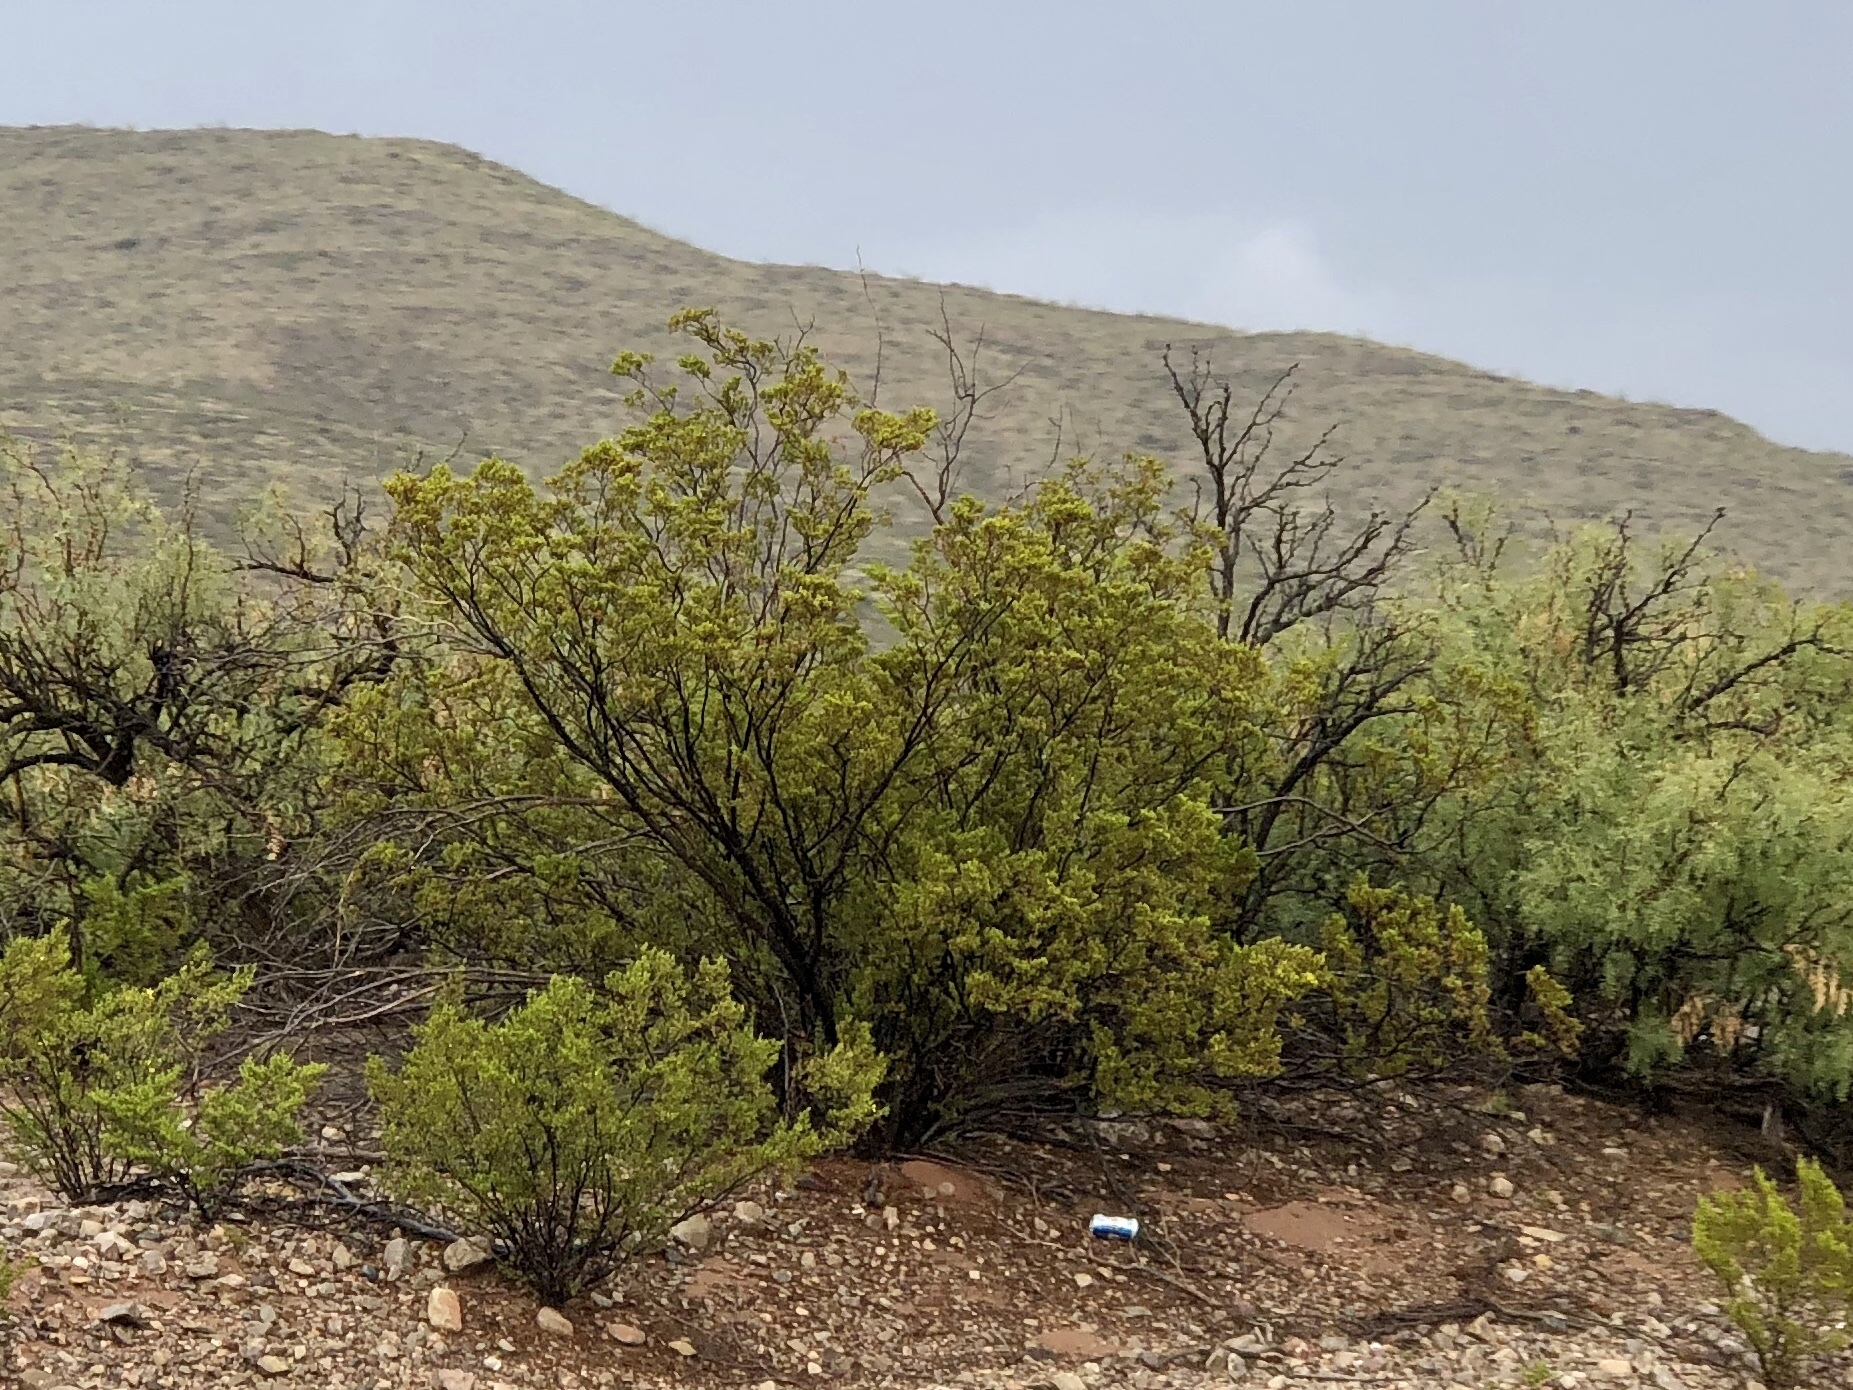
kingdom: Plantae
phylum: Tracheophyta
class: Magnoliopsida
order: Zygophyllales
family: Zygophyllaceae
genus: Larrea
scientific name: Larrea tridentata
